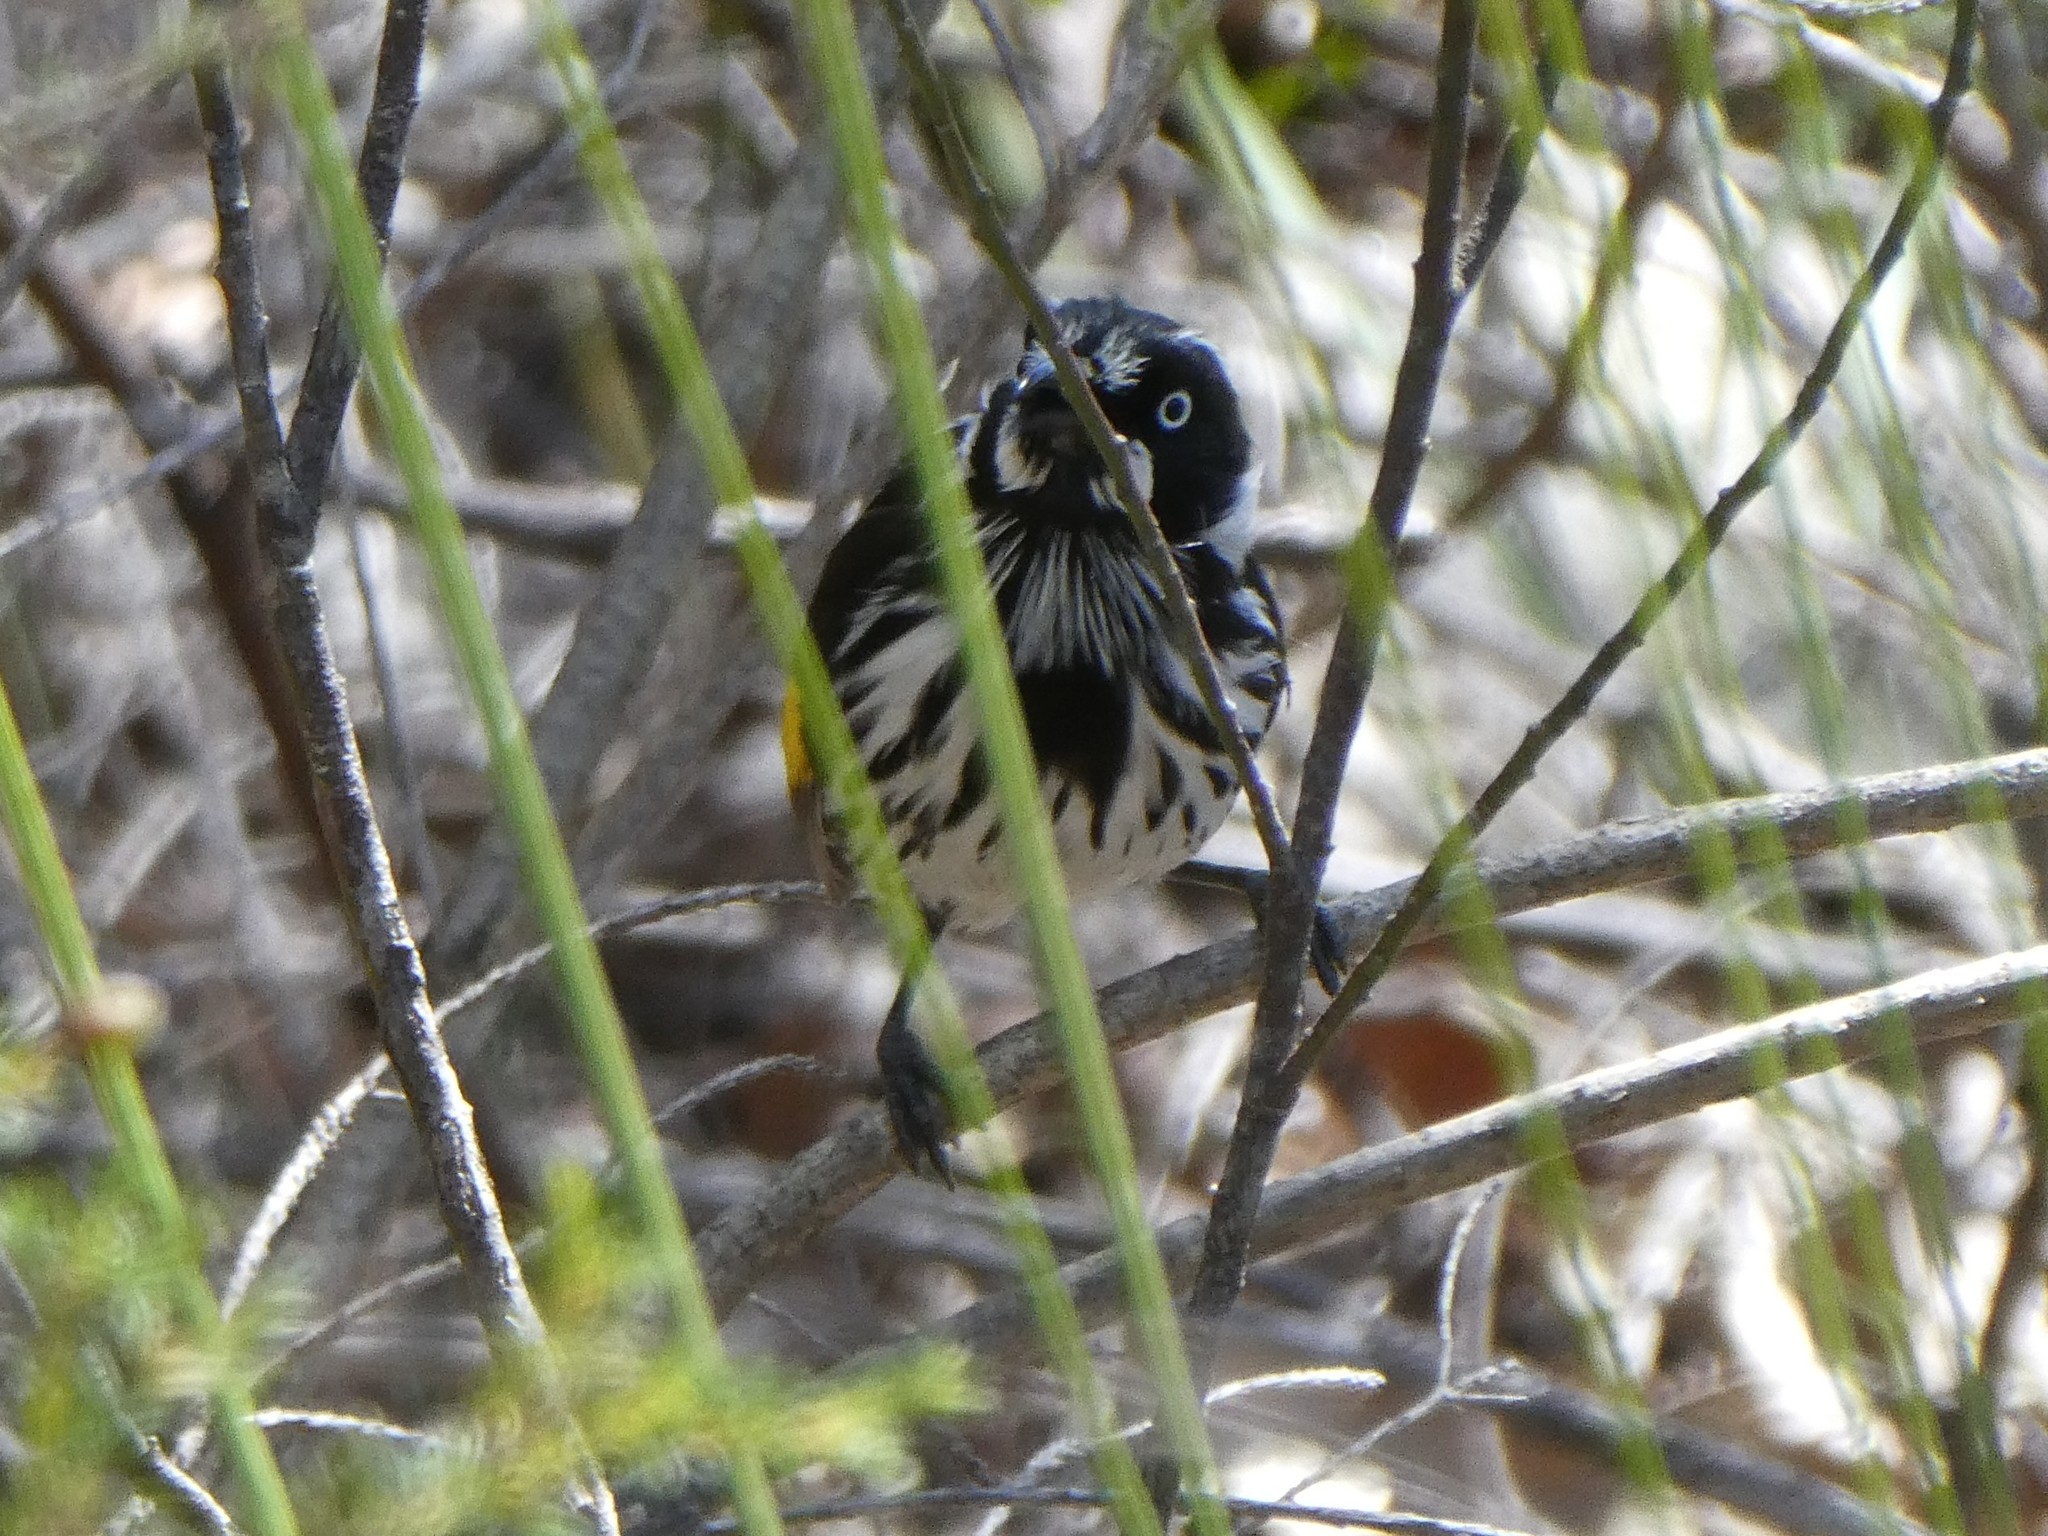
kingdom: Animalia
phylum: Chordata
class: Aves
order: Passeriformes
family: Meliphagidae
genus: Phylidonyris
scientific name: Phylidonyris novaehollandiae
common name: New holland honeyeater
